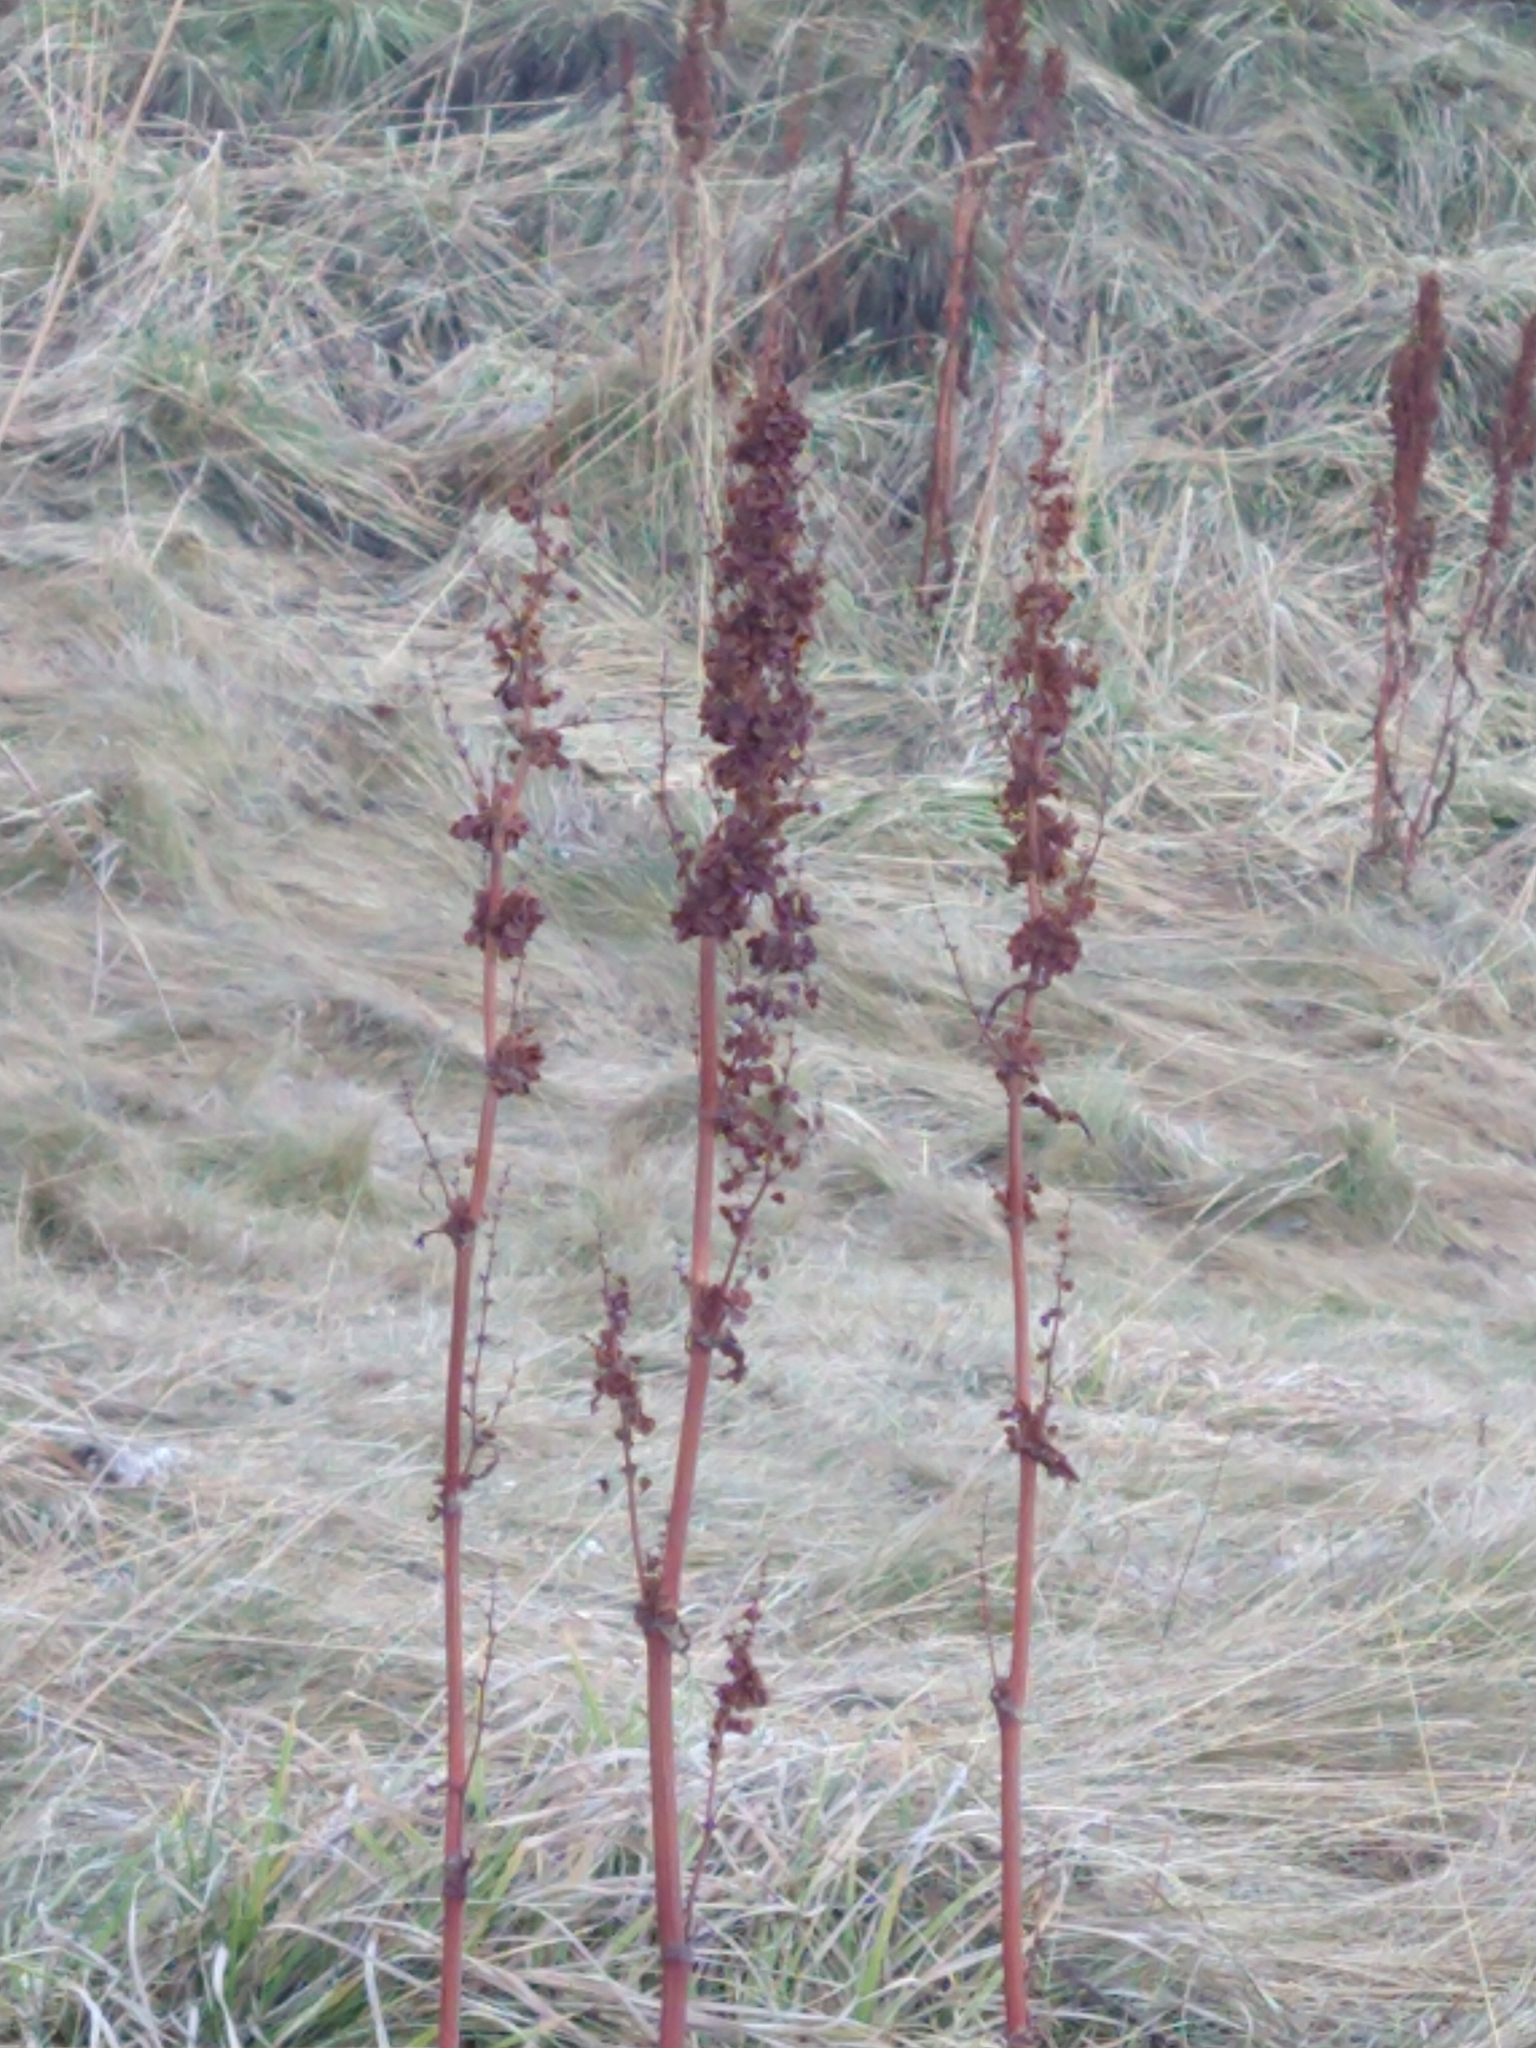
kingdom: Plantae
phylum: Tracheophyta
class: Magnoliopsida
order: Caryophyllales
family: Polygonaceae
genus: Rumex
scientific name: Rumex crispus
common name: Curled dock
